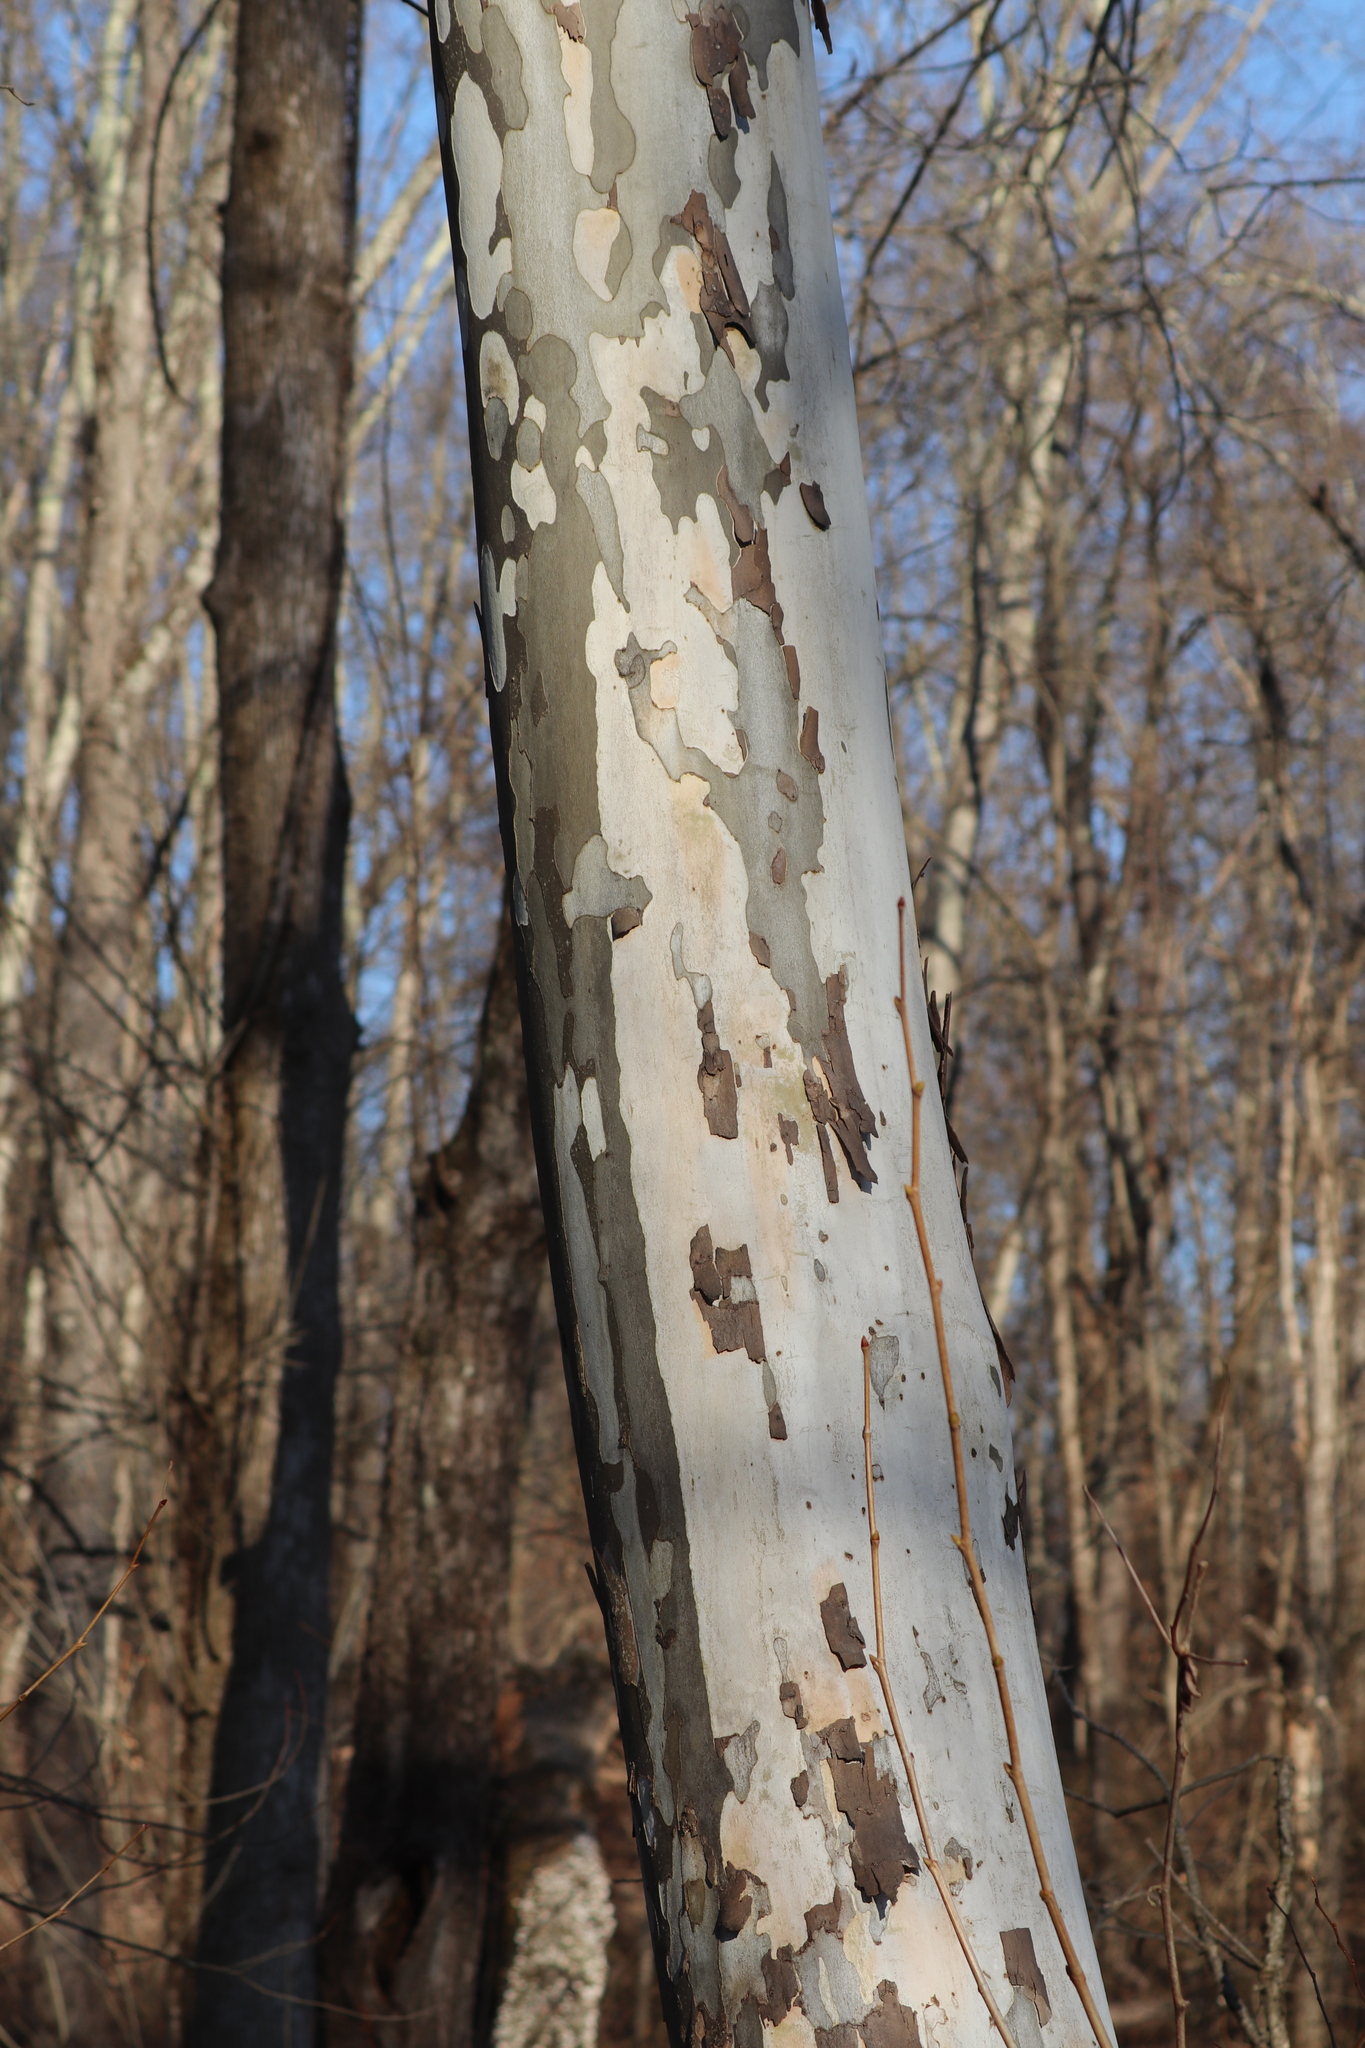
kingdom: Plantae
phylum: Tracheophyta
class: Magnoliopsida
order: Proteales
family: Platanaceae
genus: Platanus
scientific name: Platanus occidentalis
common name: American sycamore
